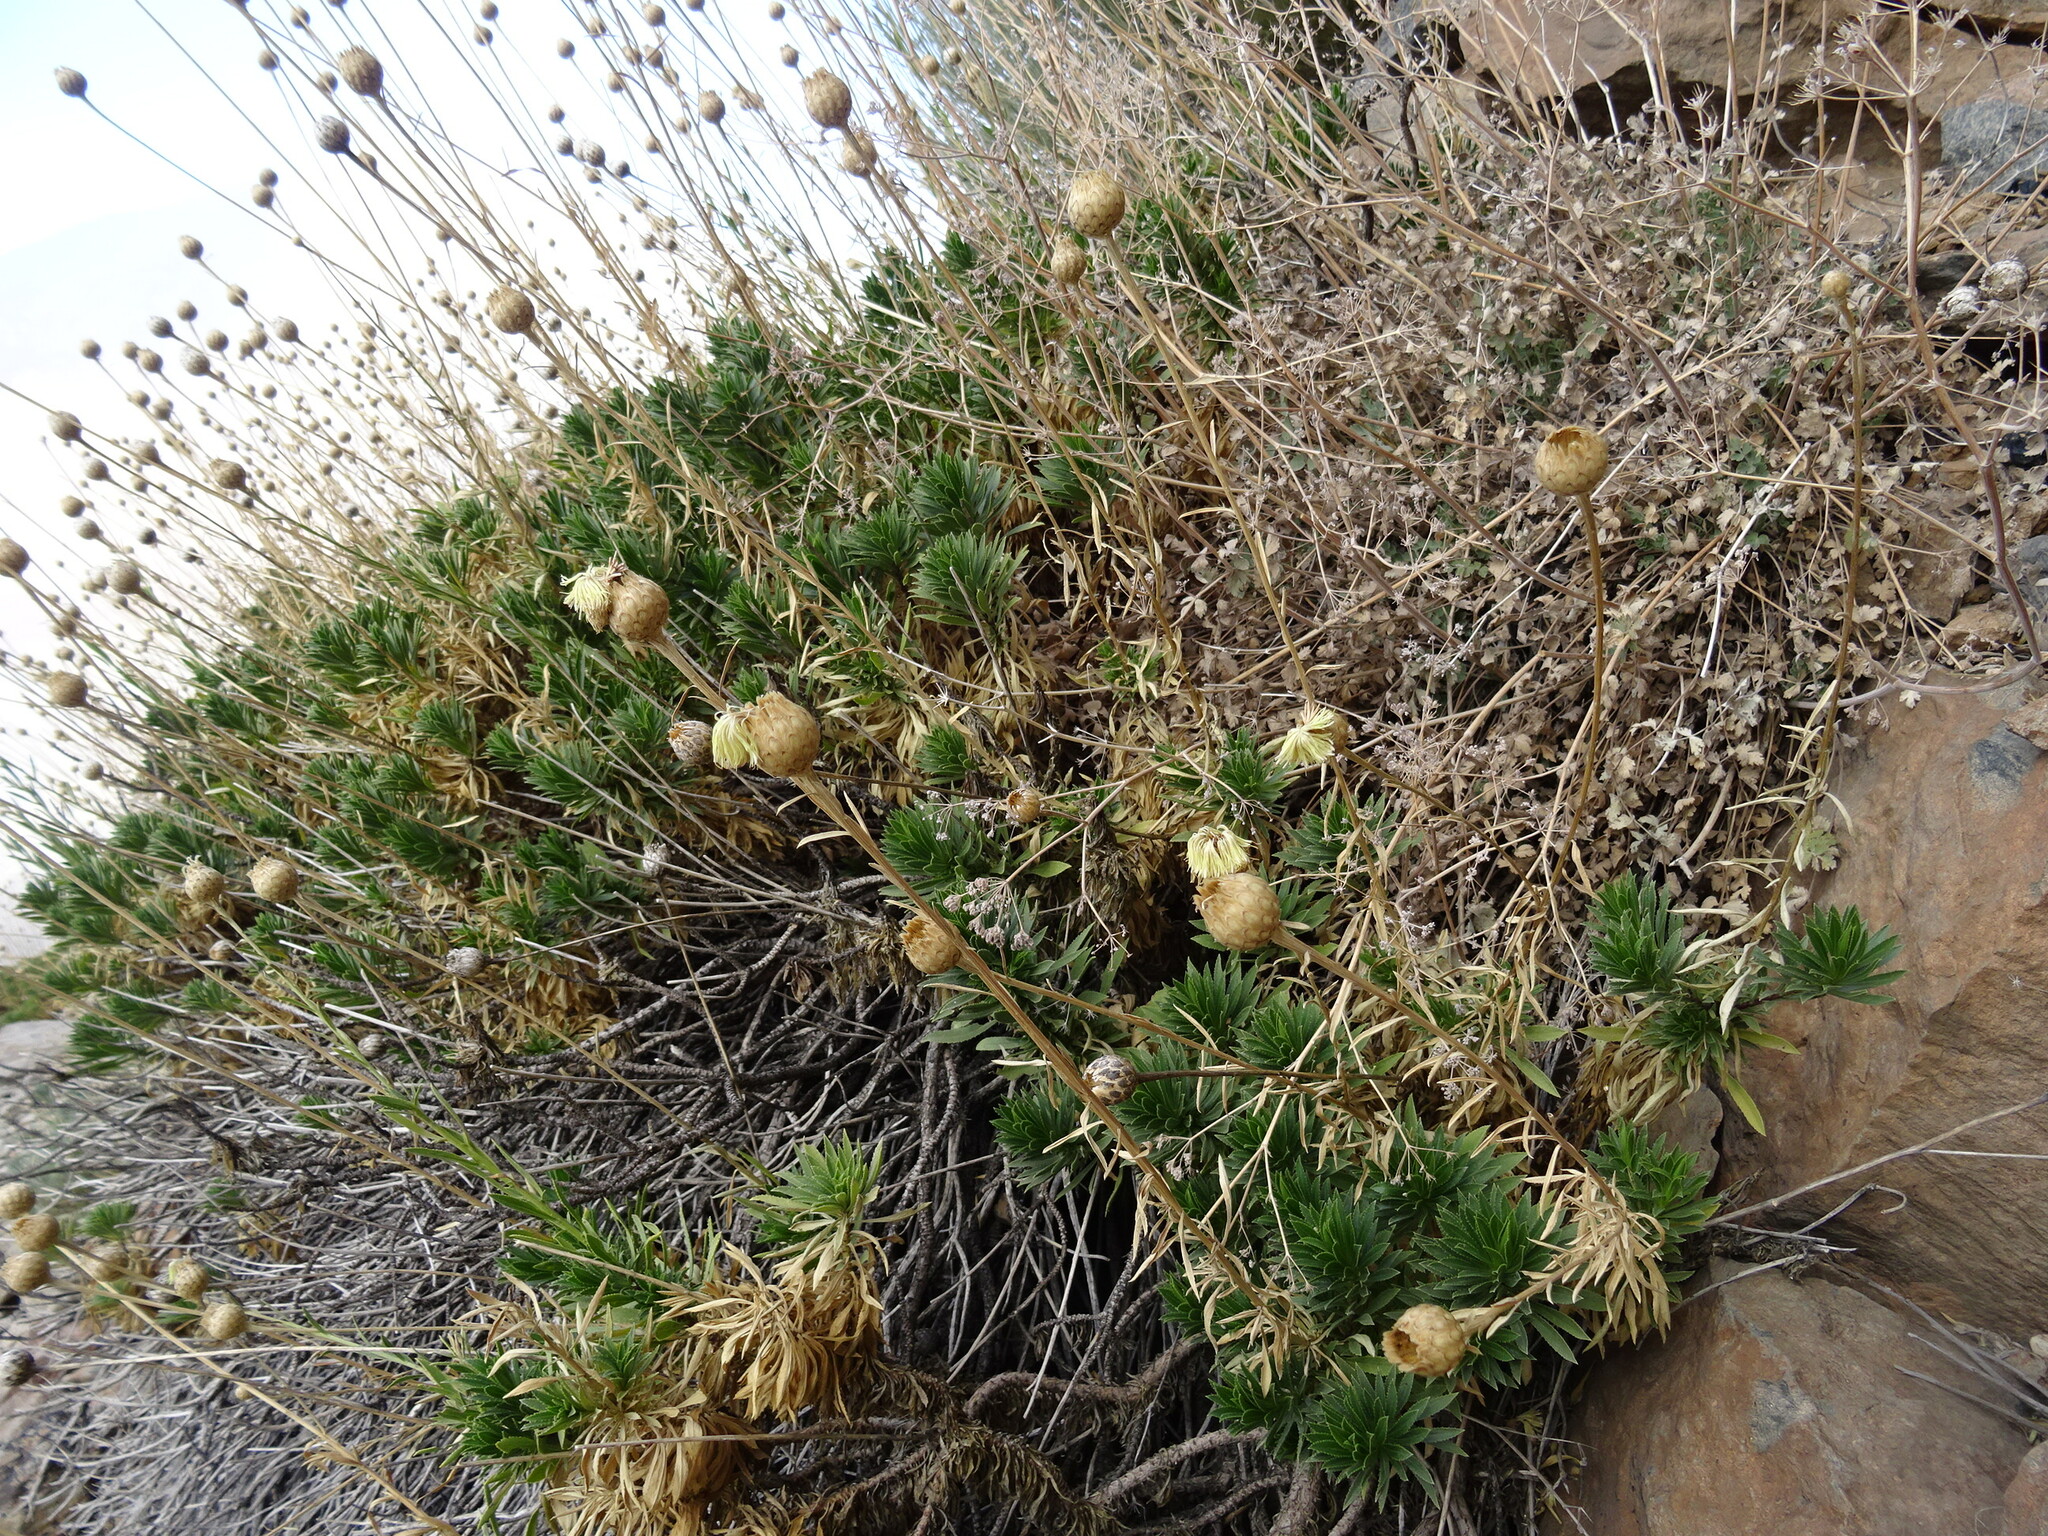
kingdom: Plantae
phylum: Tracheophyta
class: Magnoliopsida
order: Asterales
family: Asteraceae
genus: Cheirolophus
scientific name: Cheirolophus teydis
